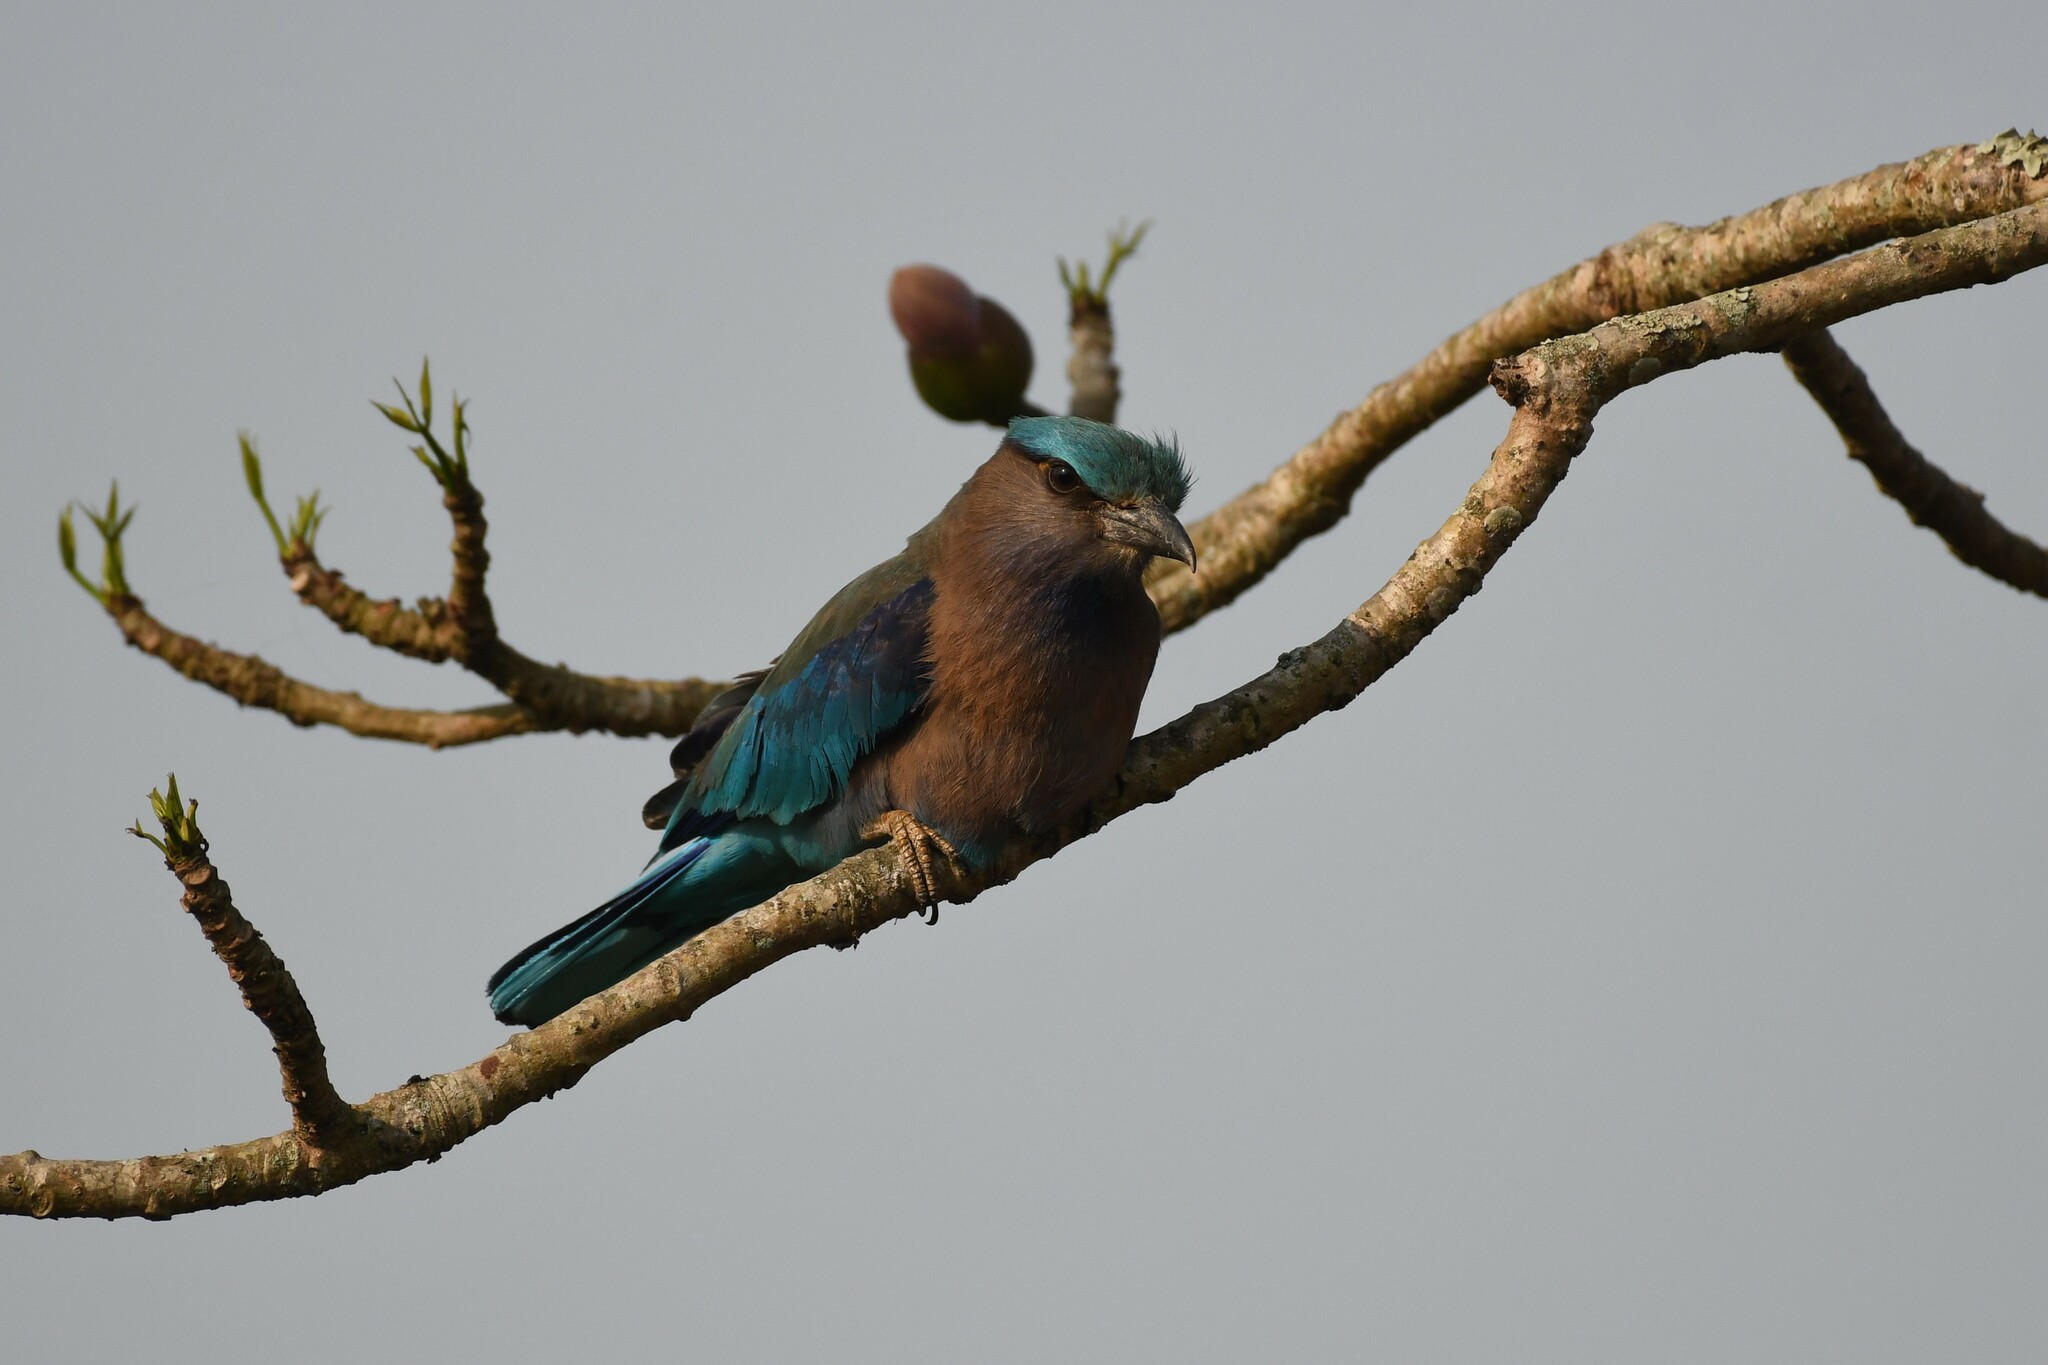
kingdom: Animalia
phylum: Chordata
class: Aves
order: Coraciiformes
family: Coraciidae
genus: Coracias
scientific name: Coracias affinis
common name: Indochinese roller
